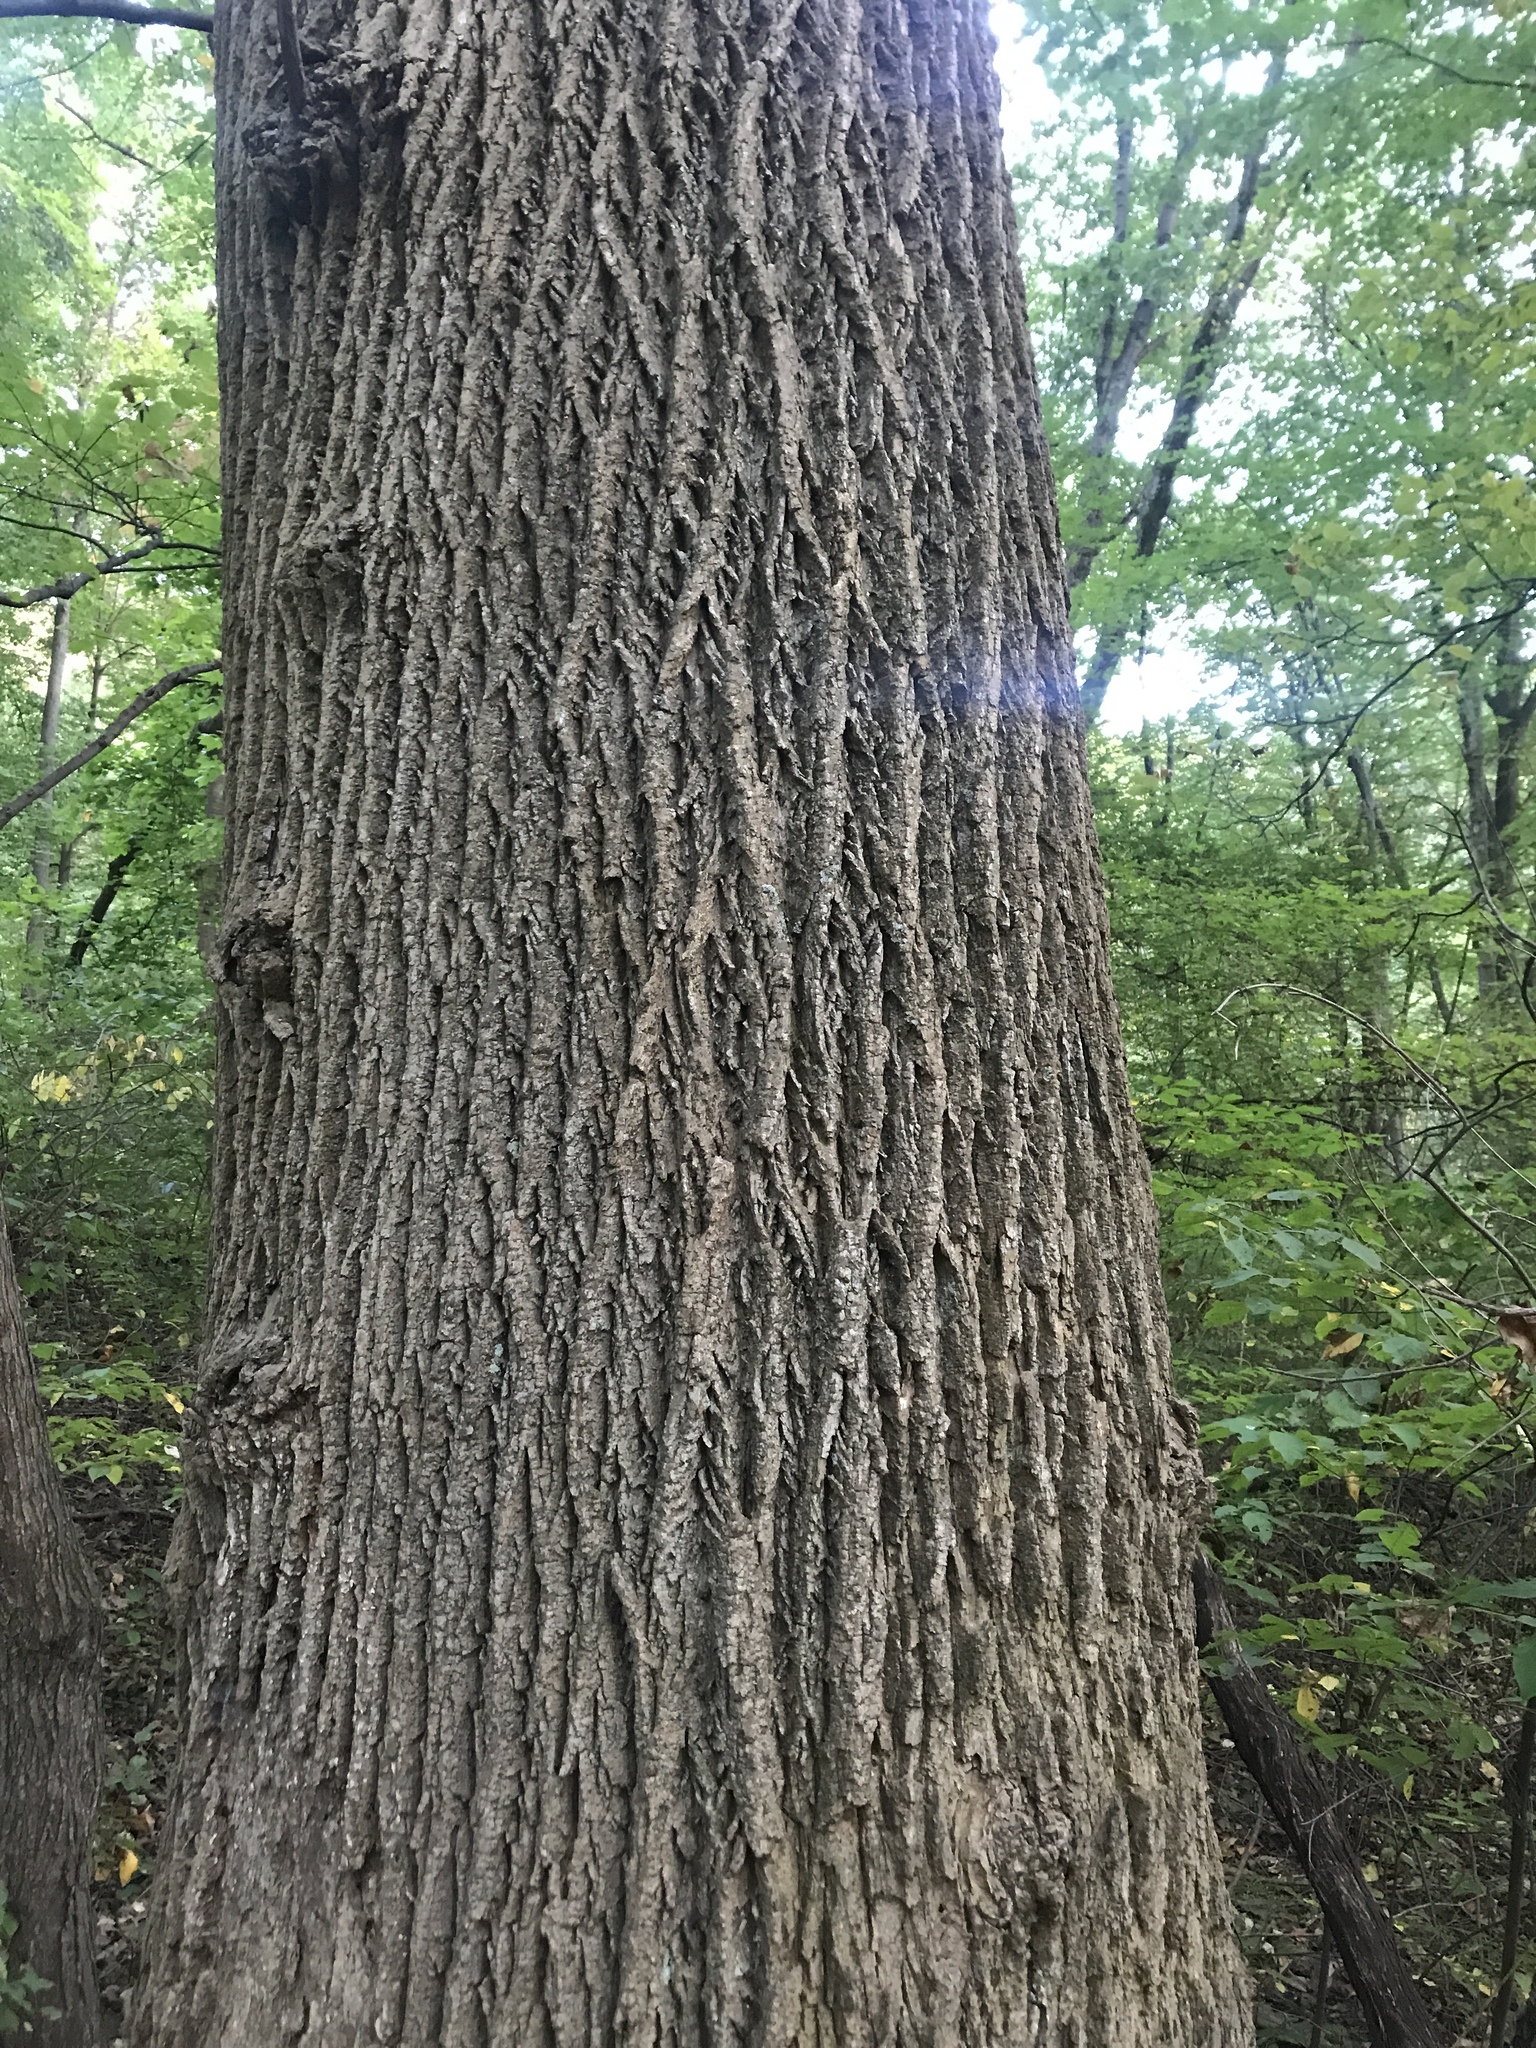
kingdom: Plantae
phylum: Tracheophyta
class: Magnoliopsida
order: Magnoliales
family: Magnoliaceae
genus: Liriodendron
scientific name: Liriodendron tulipifera
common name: Tulip tree
